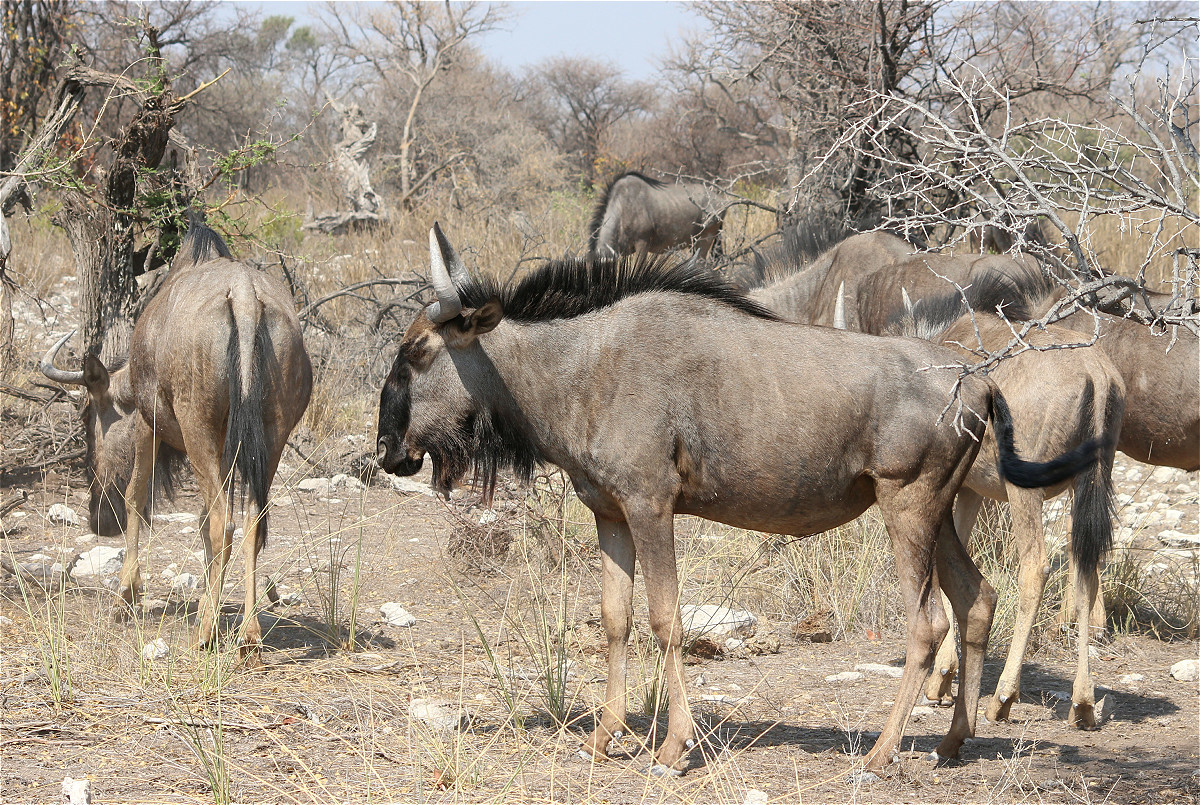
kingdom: Animalia
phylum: Chordata
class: Mammalia
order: Artiodactyla
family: Bovidae
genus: Connochaetes
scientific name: Connochaetes taurinus
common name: Blue wildebeest
